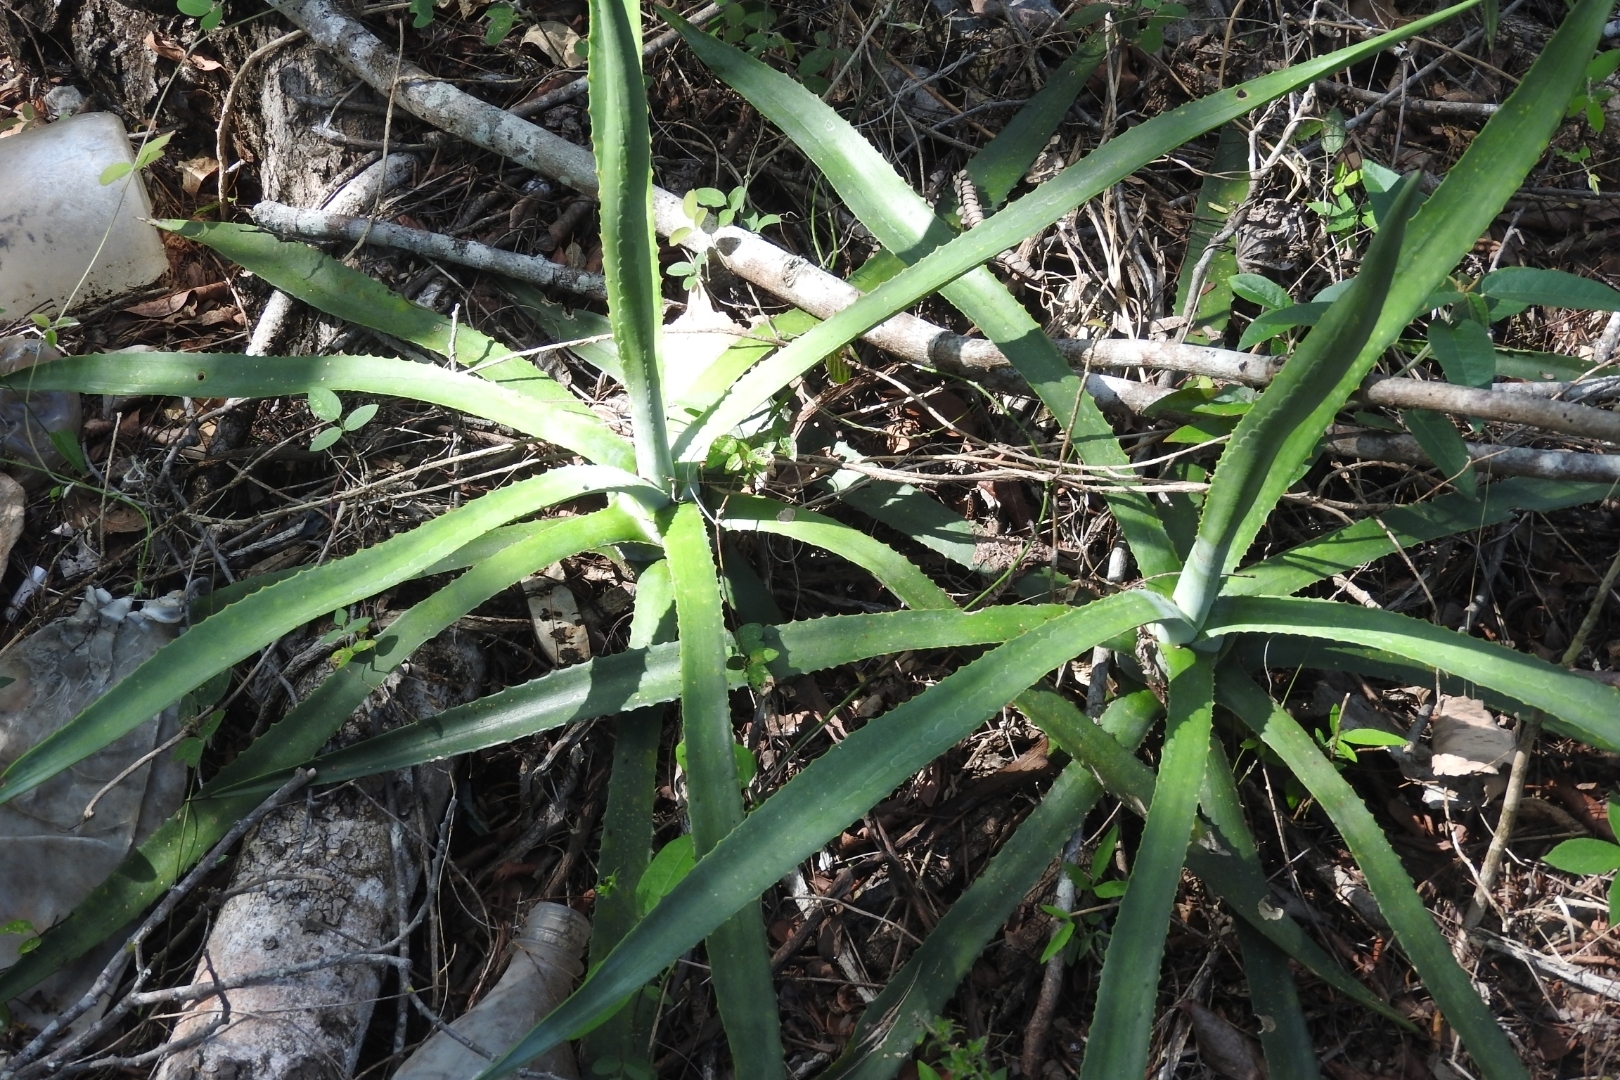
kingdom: Plantae
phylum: Tracheophyta
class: Liliopsida
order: Asparagales
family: Asparagaceae
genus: Agave
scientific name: Agave angustifolia
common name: Mescal agave
